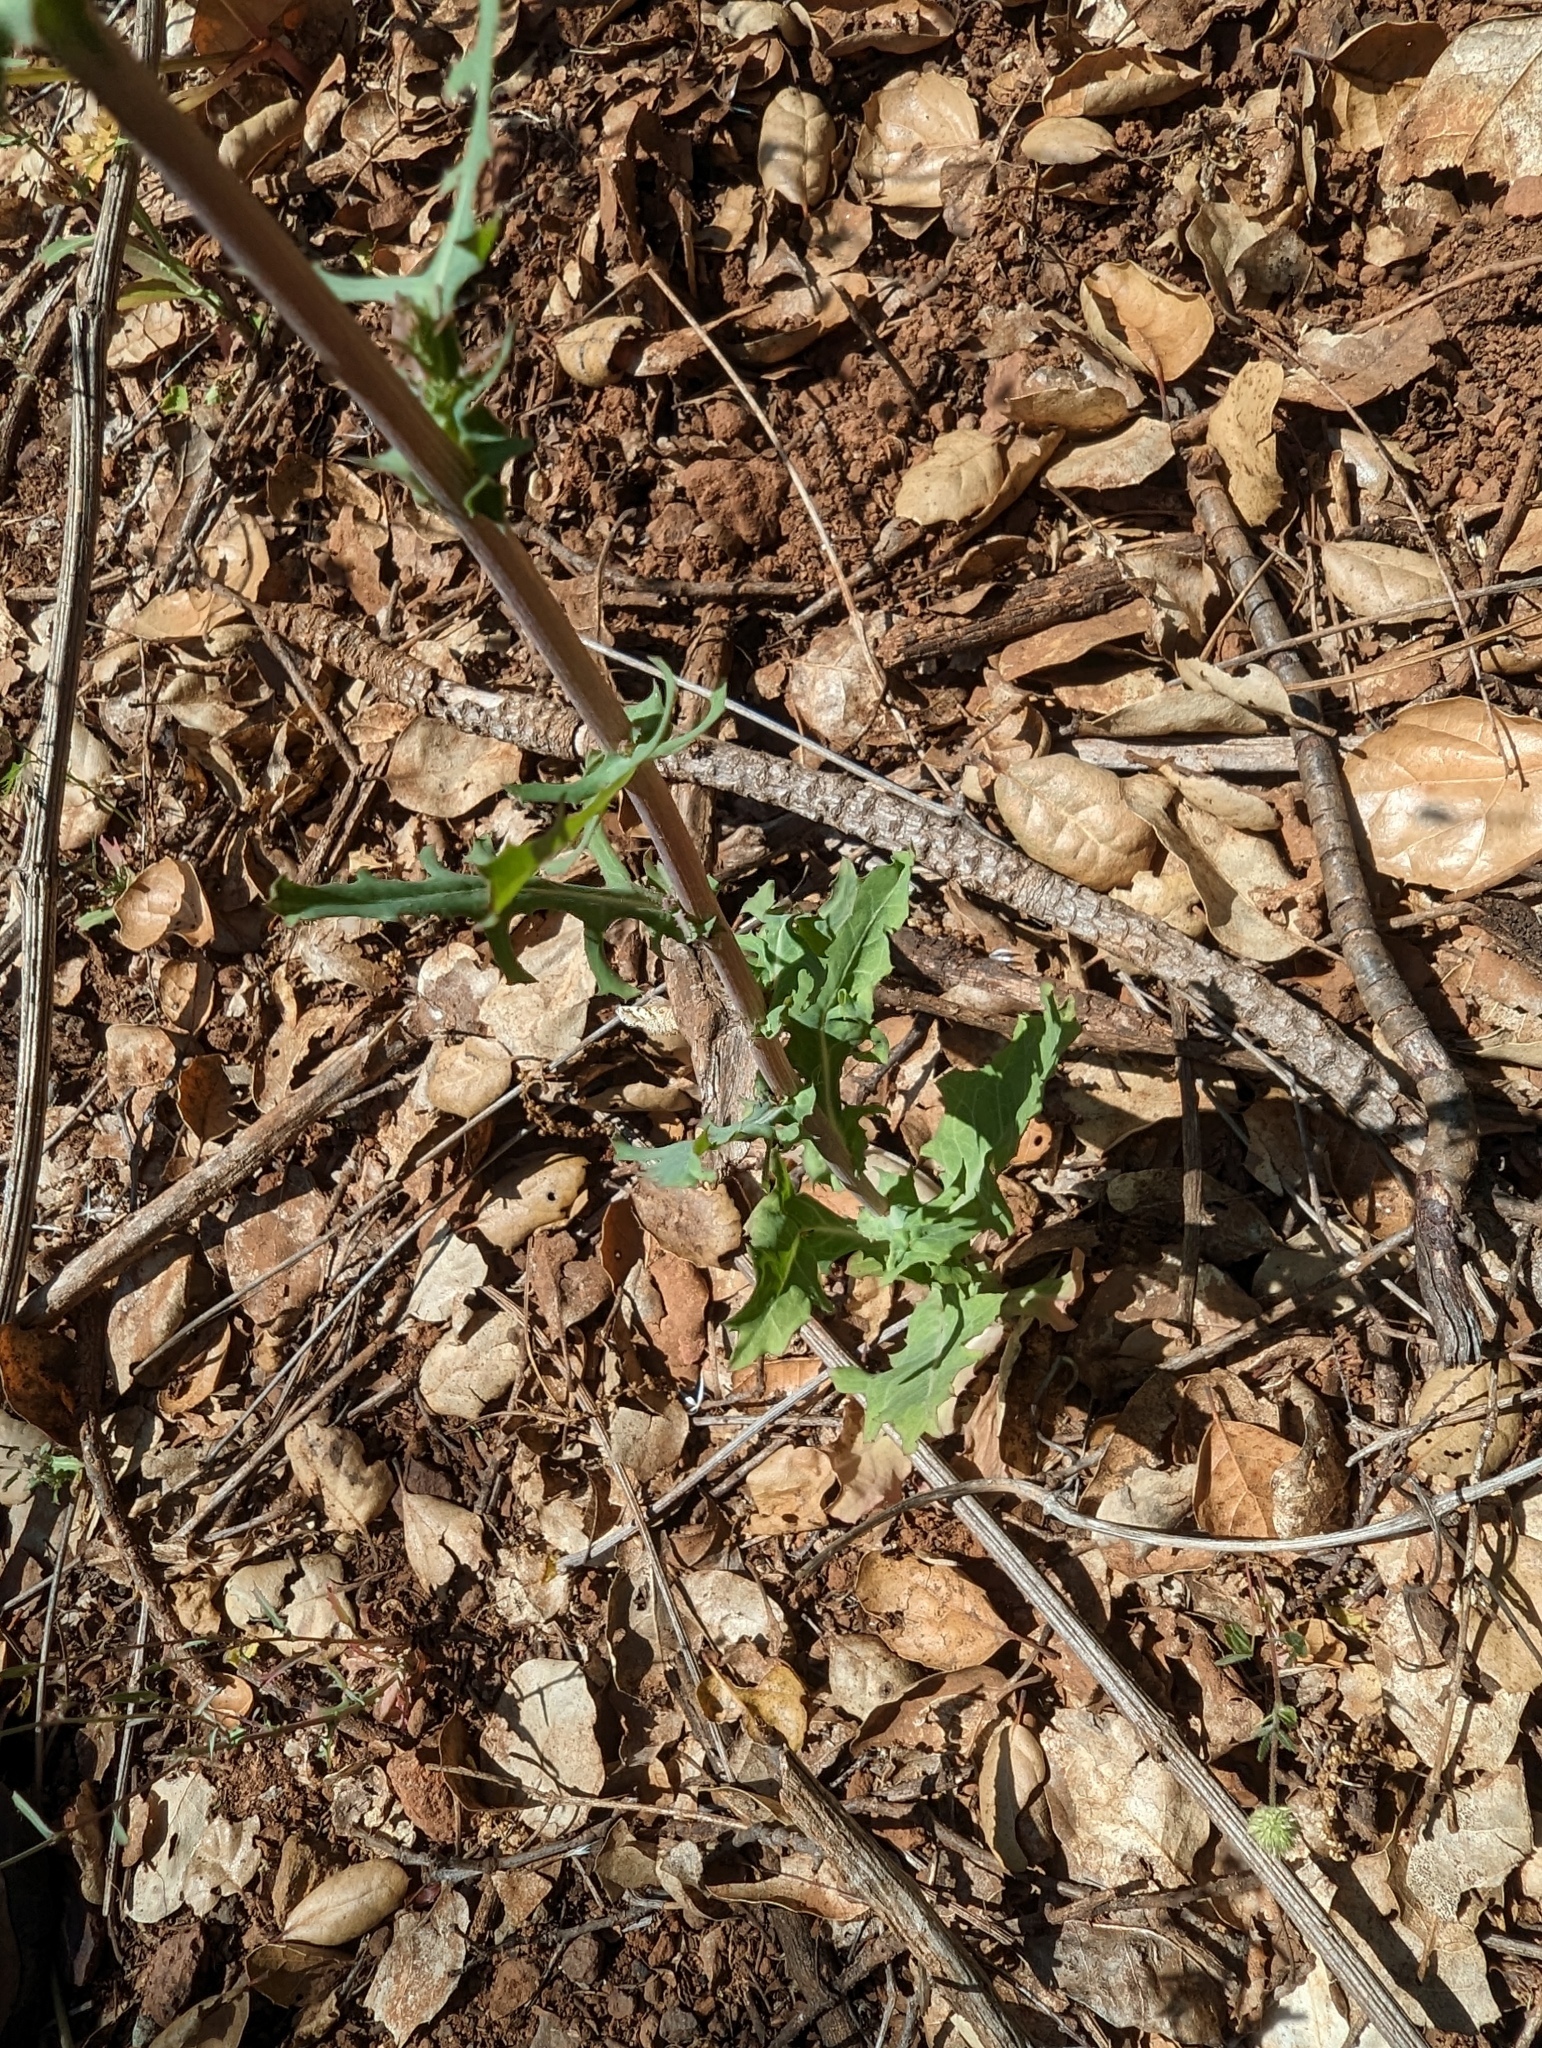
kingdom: Plantae
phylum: Tracheophyta
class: Magnoliopsida
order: Asterales
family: Asteraceae
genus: Rafinesquia
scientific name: Rafinesquia californica
